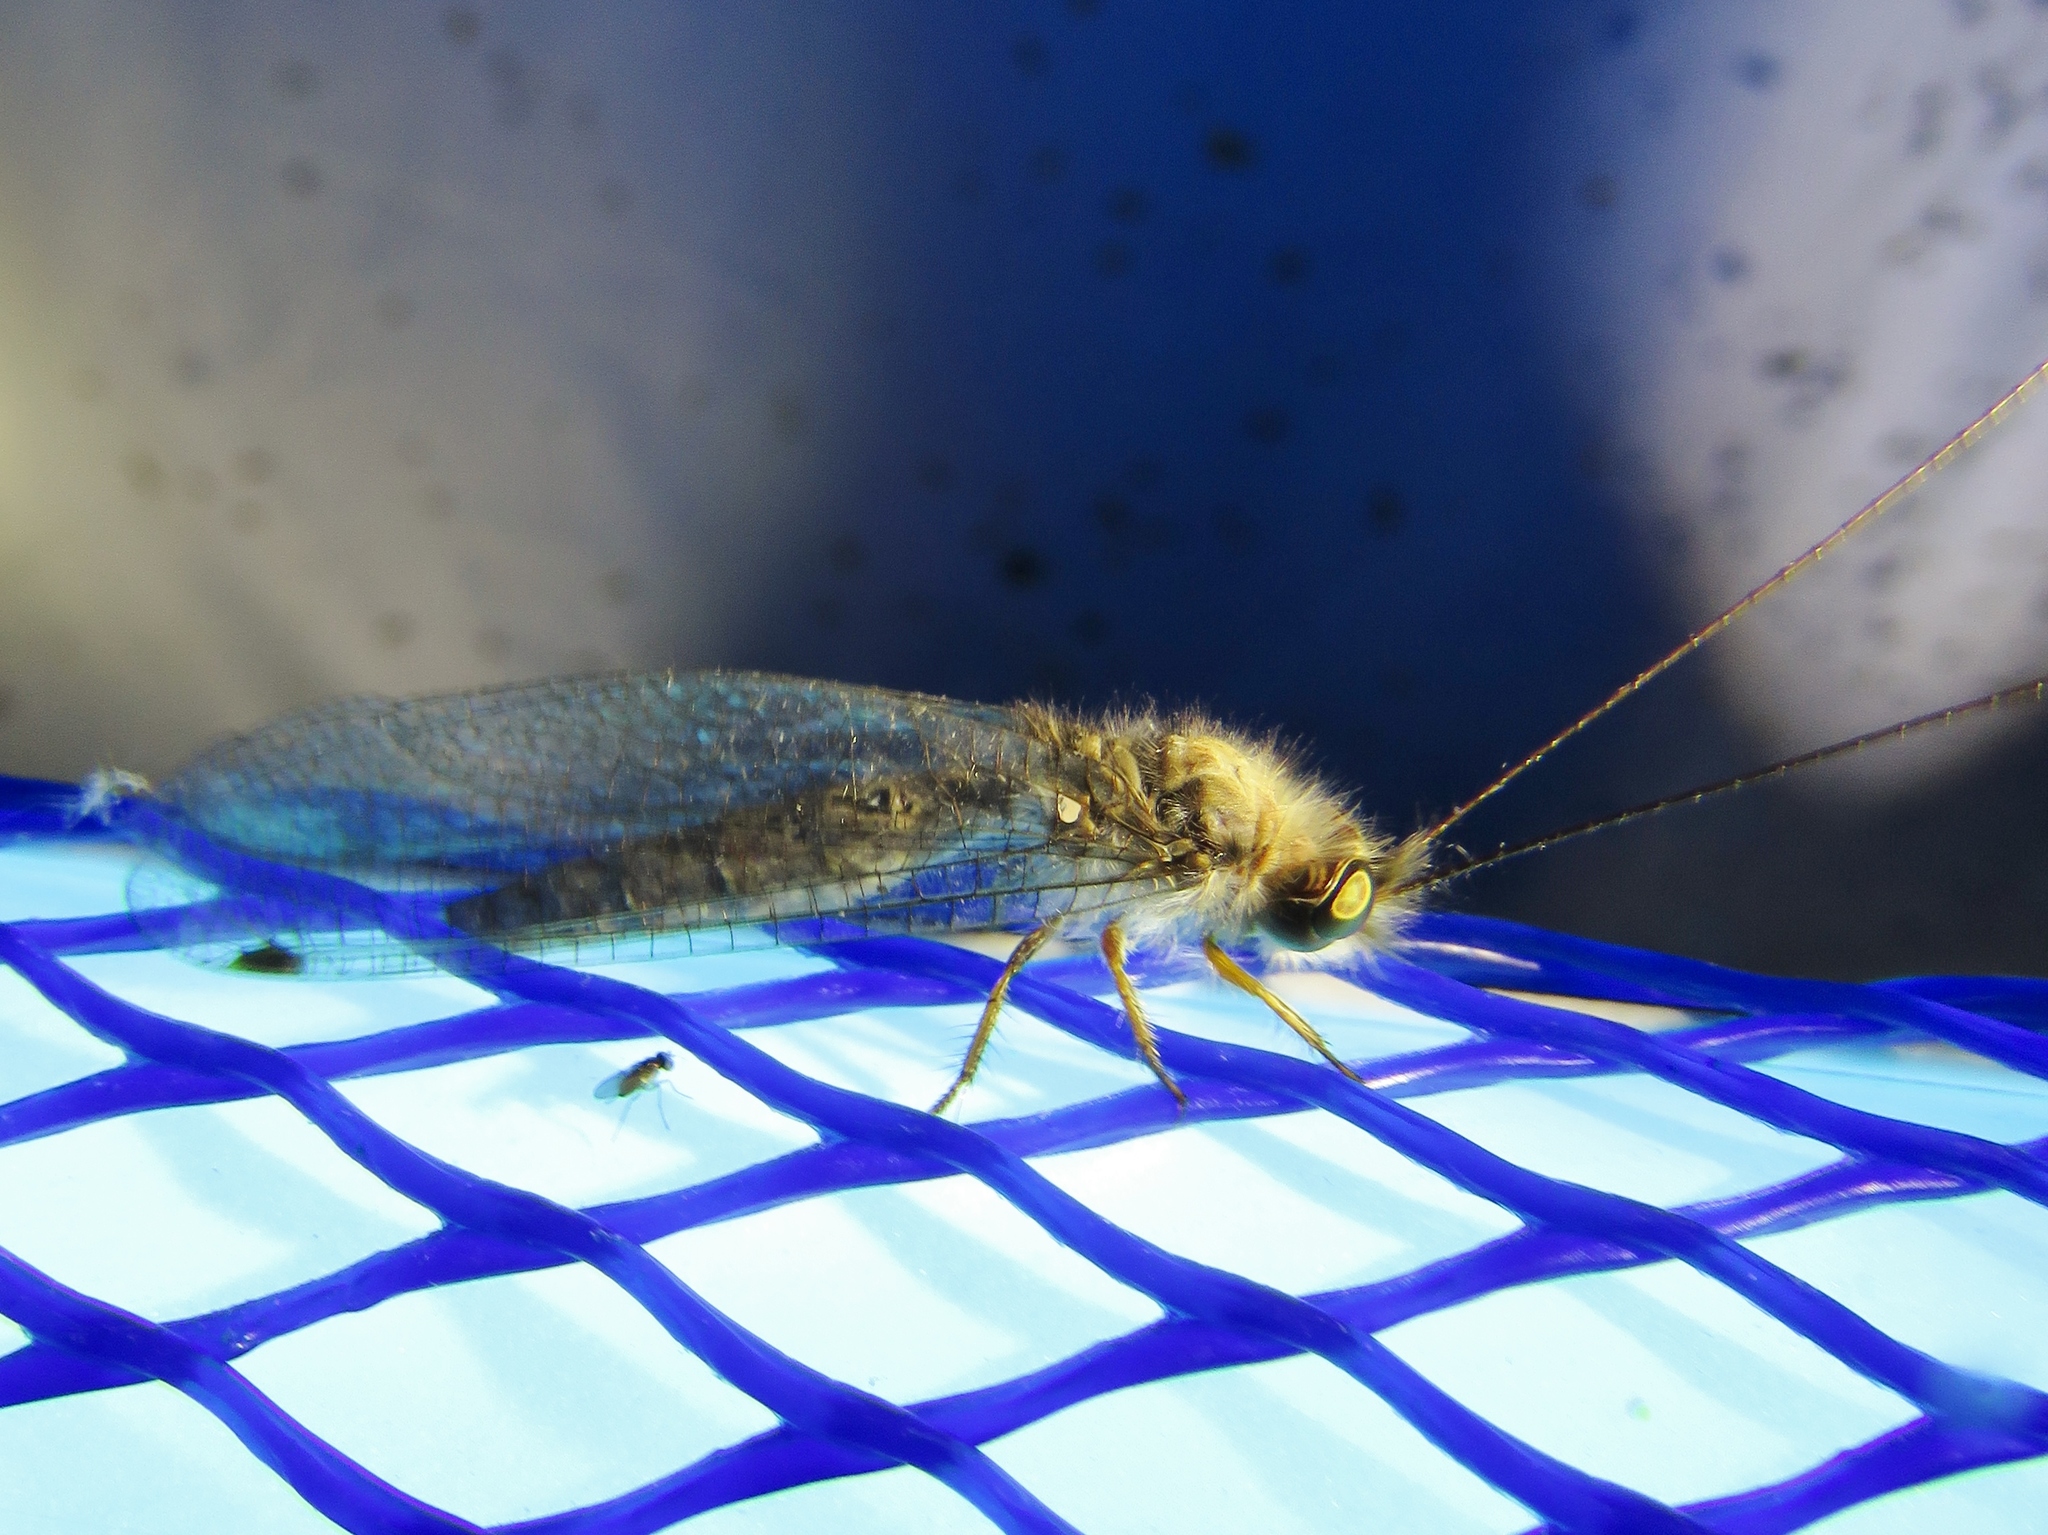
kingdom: Animalia
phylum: Arthropoda
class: Insecta
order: Neuroptera
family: Ascalaphidae
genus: Ululodes
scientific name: Ululodes macleayanus
